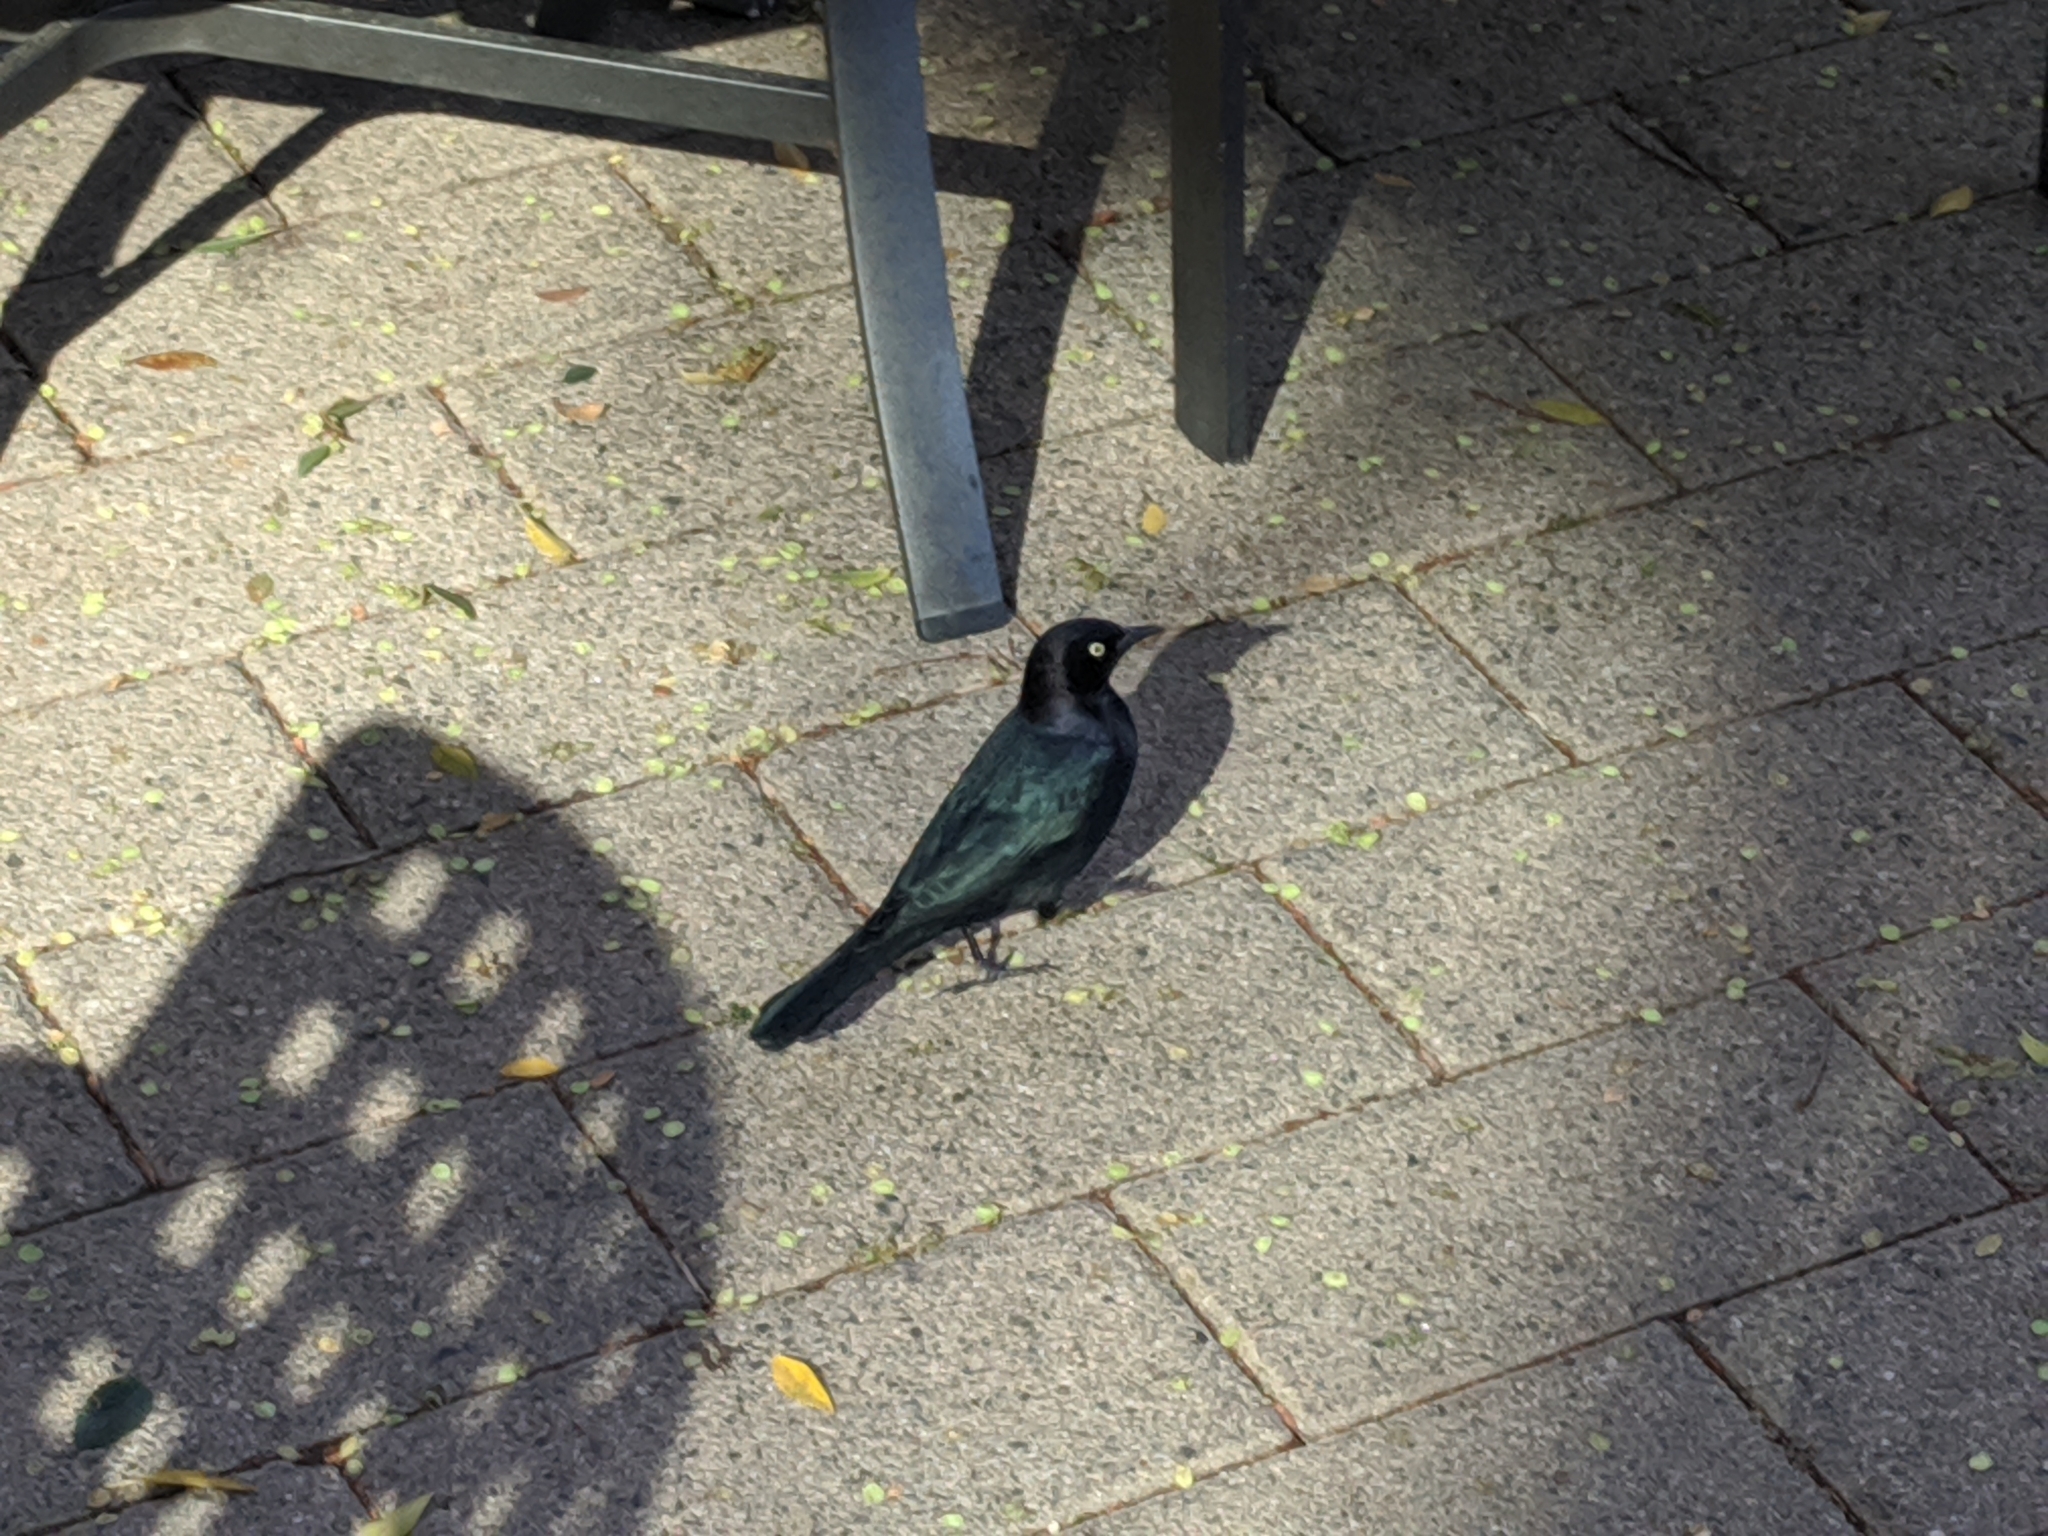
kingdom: Animalia
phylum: Chordata
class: Aves
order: Passeriformes
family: Icteridae
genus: Euphagus
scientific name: Euphagus cyanocephalus
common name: Brewer's blackbird
